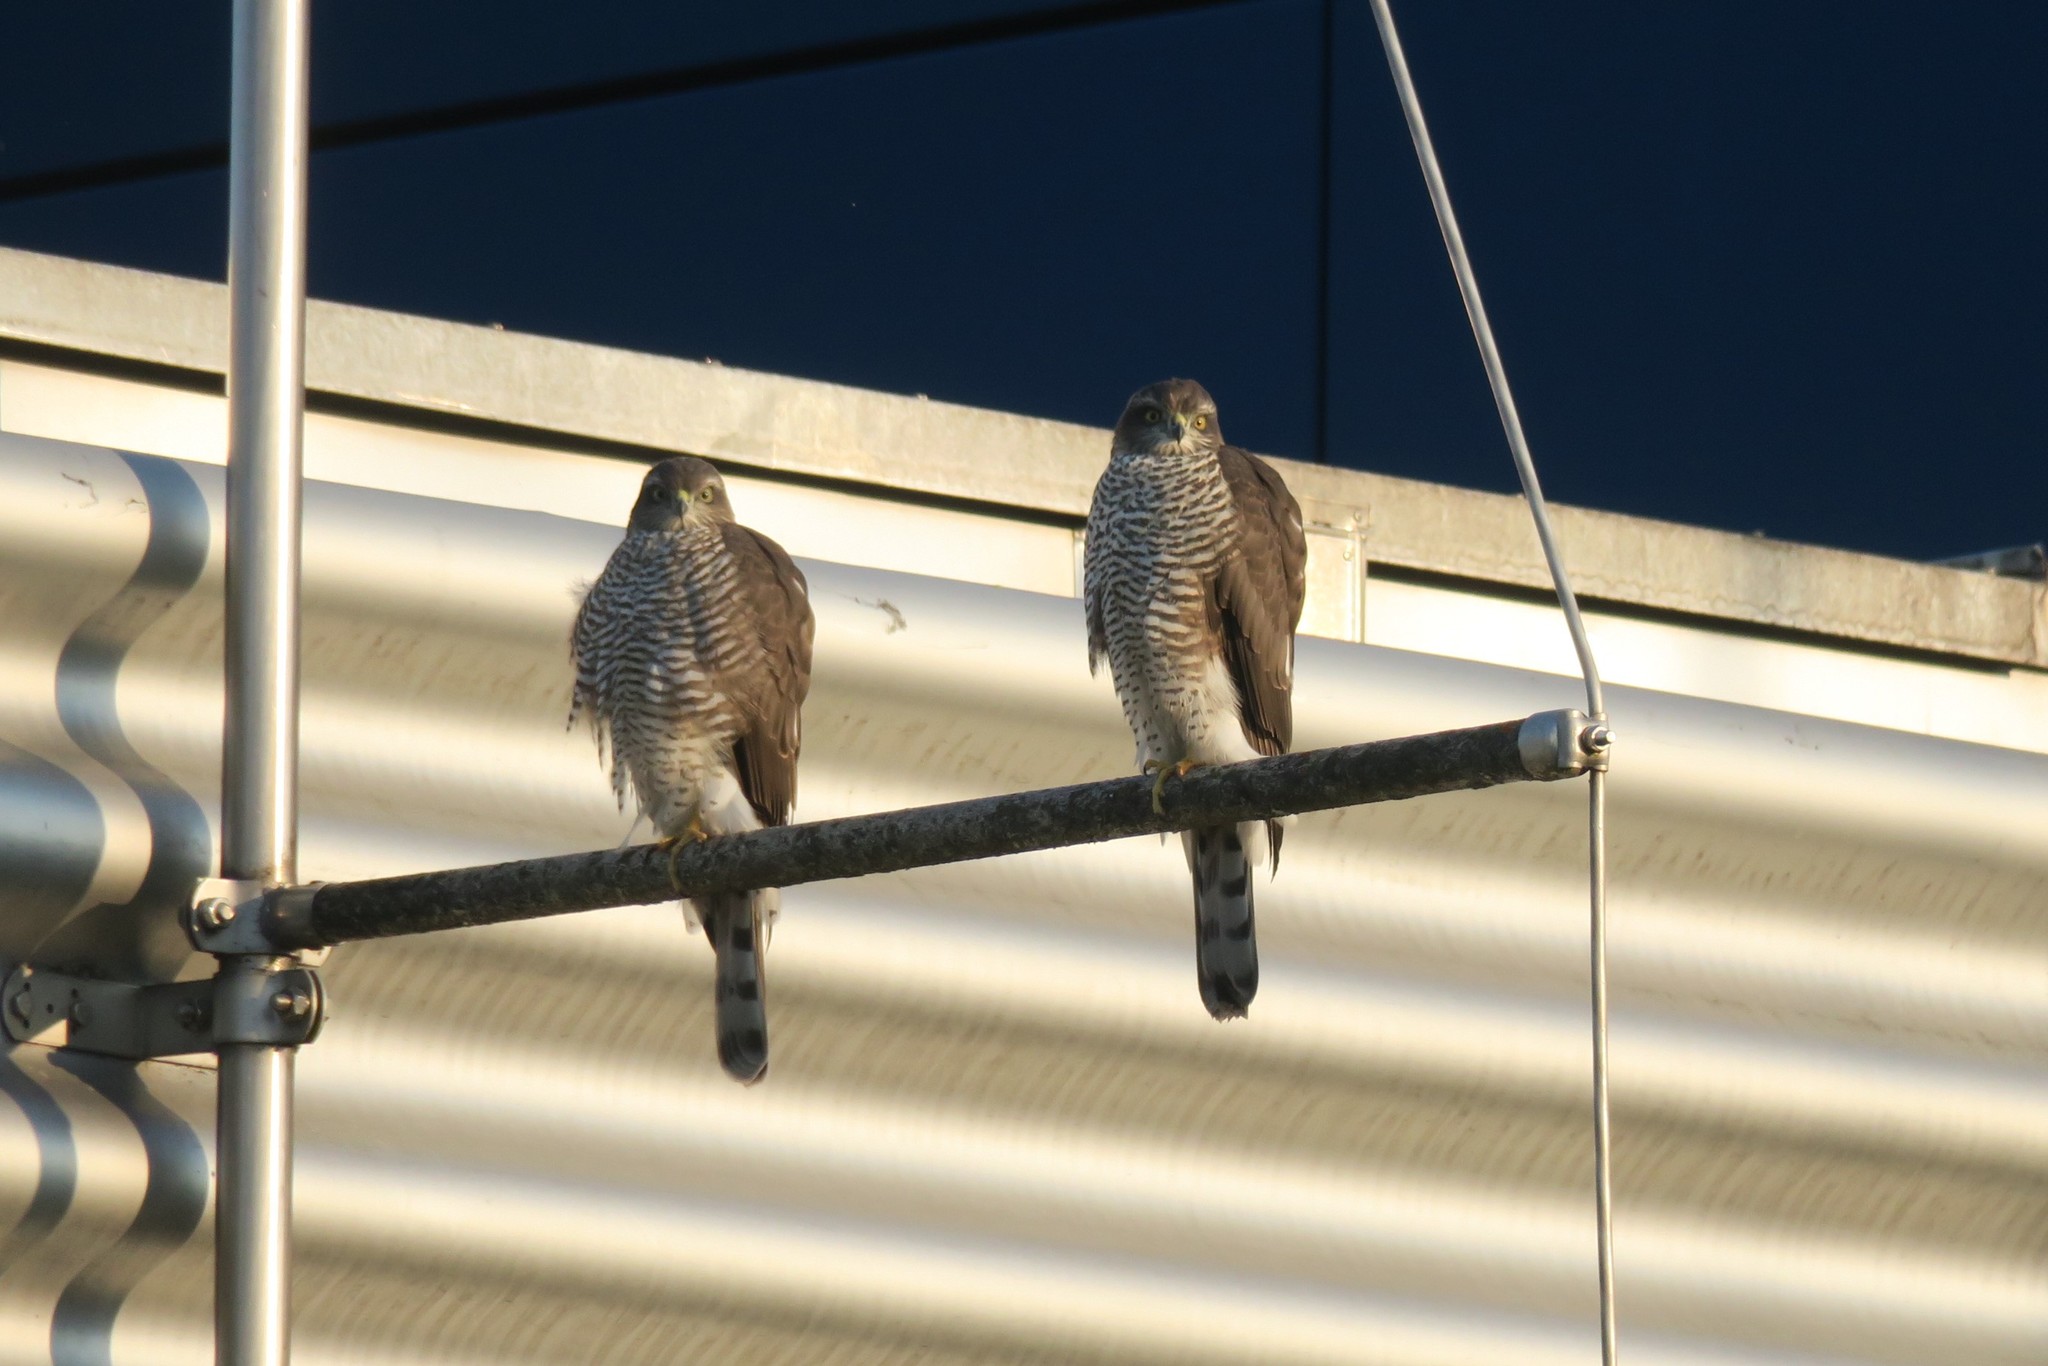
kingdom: Animalia
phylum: Chordata
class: Aves
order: Accipitriformes
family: Accipitridae
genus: Accipiter
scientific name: Accipiter nisus
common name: Eurasian sparrowhawk
